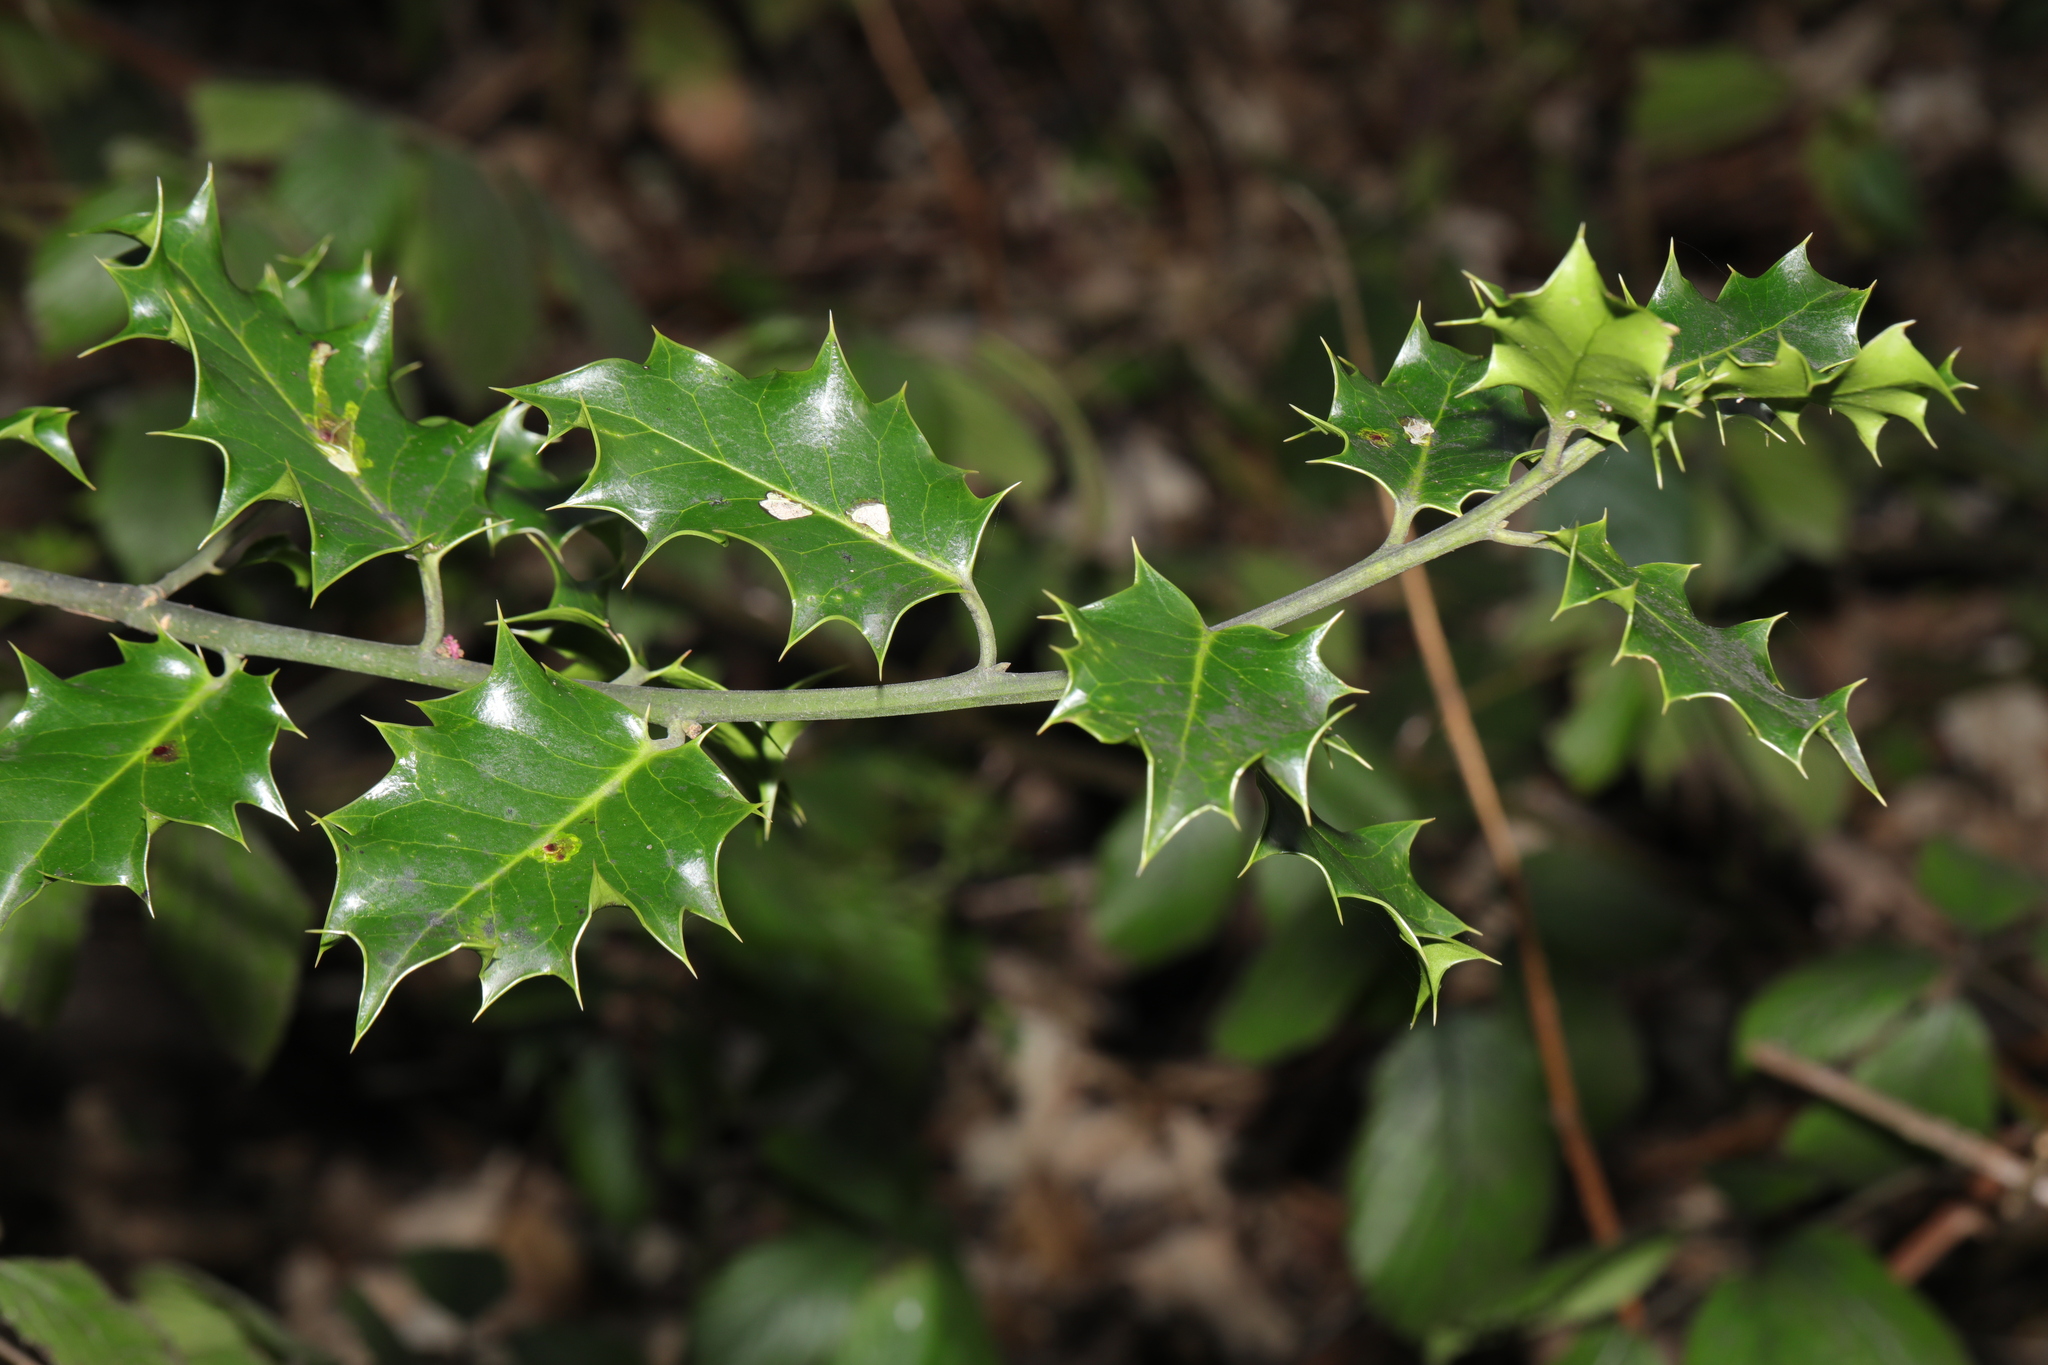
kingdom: Plantae
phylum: Tracheophyta
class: Magnoliopsida
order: Aquifoliales
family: Aquifoliaceae
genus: Ilex
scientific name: Ilex aquifolium
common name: English holly
